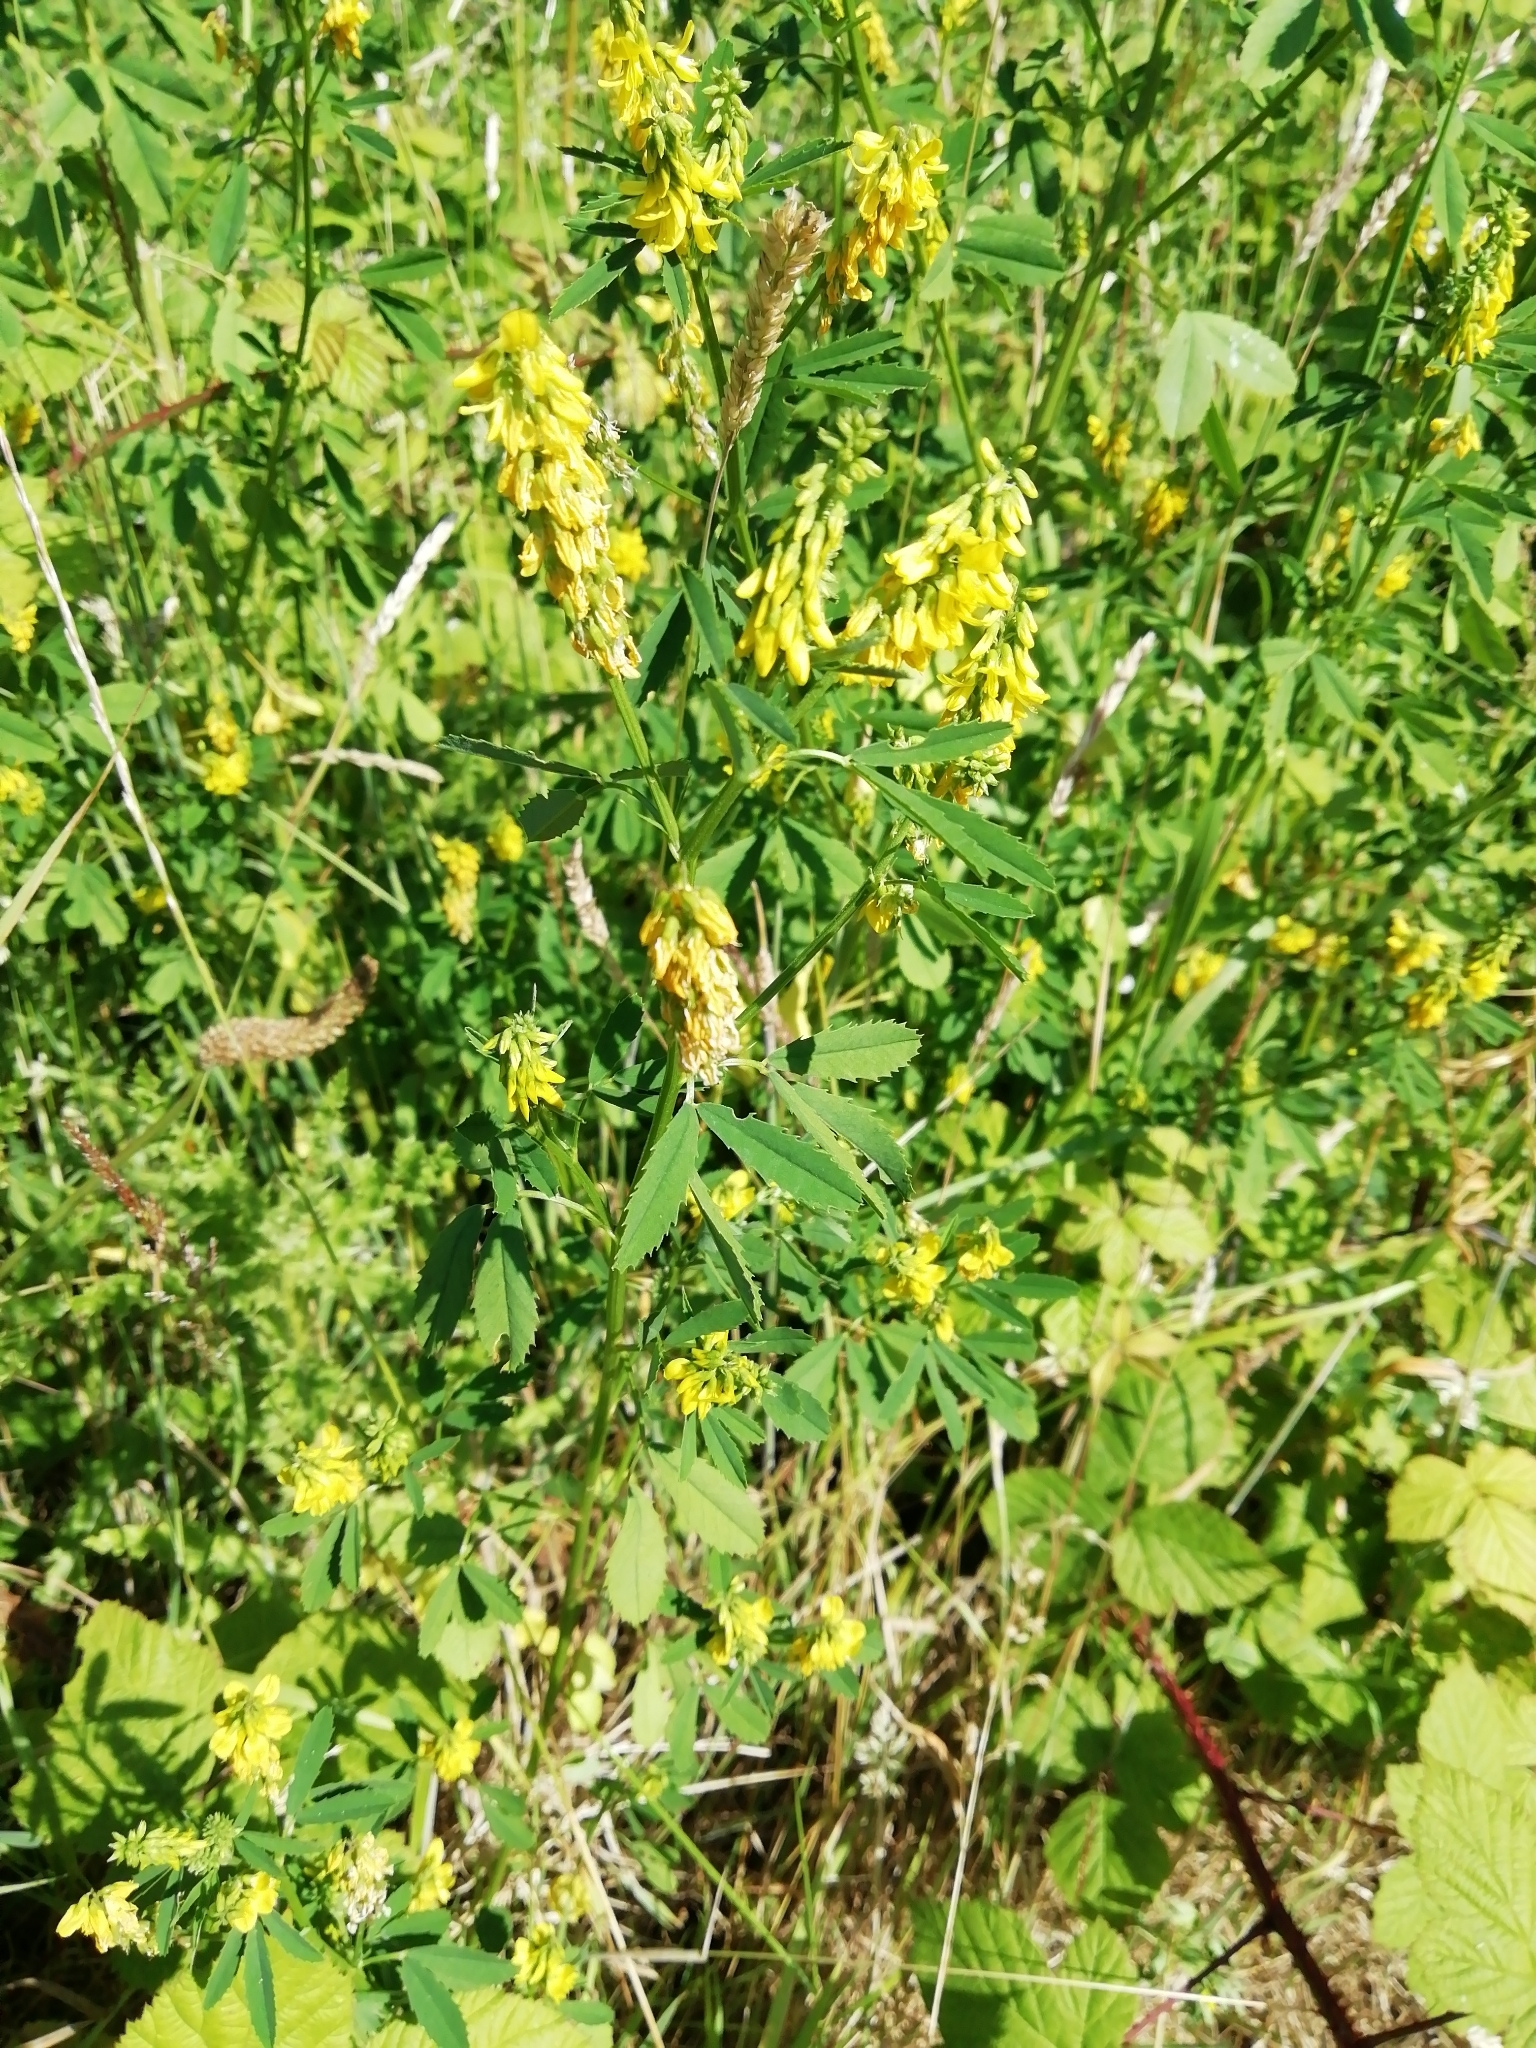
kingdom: Plantae
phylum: Tracheophyta
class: Magnoliopsida
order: Fabales
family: Fabaceae
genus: Melilotus
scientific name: Melilotus officinalis
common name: Sweetclover
